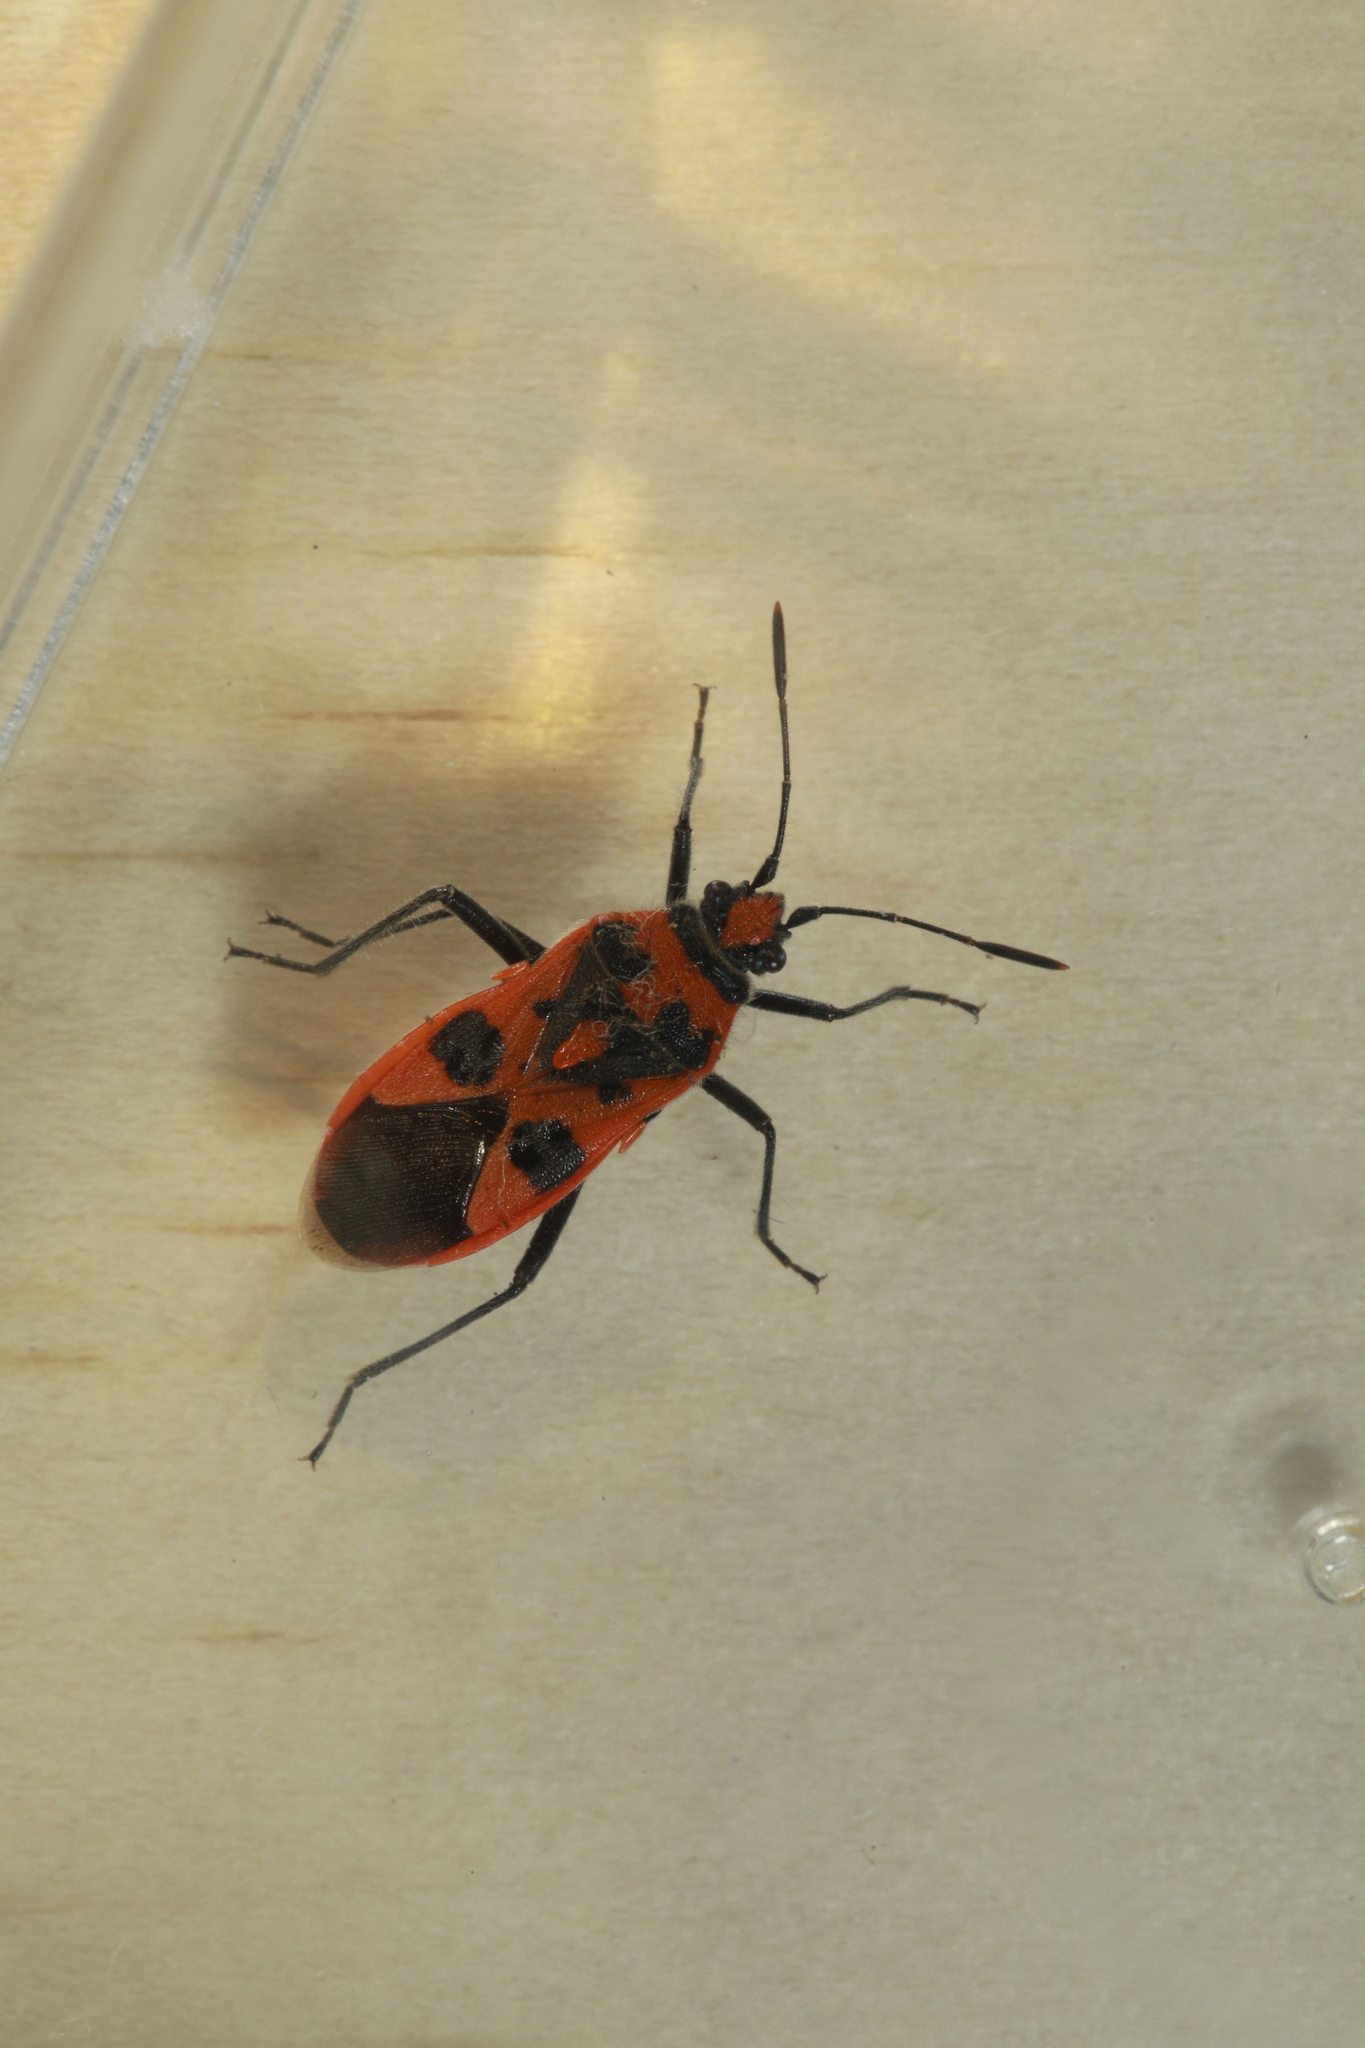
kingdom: Animalia
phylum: Arthropoda
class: Insecta
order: Hemiptera
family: Rhopalidae
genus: Corizus
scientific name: Corizus hyoscyami
